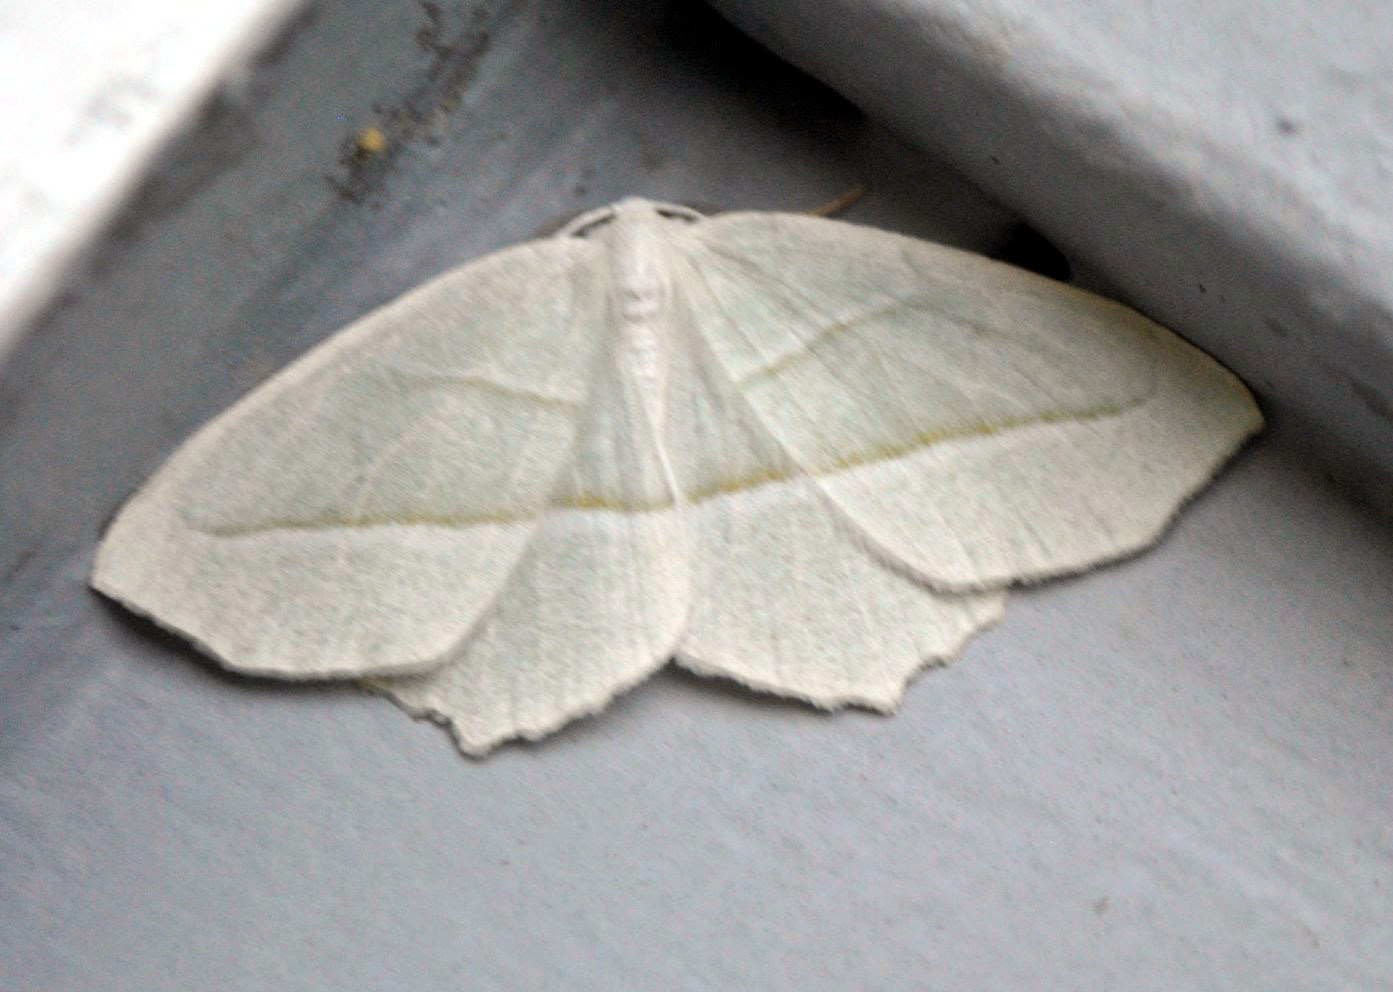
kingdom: Animalia
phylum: Arthropoda
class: Insecta
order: Lepidoptera
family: Geometridae
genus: Campaea
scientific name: Campaea perlata
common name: Fringed looper
